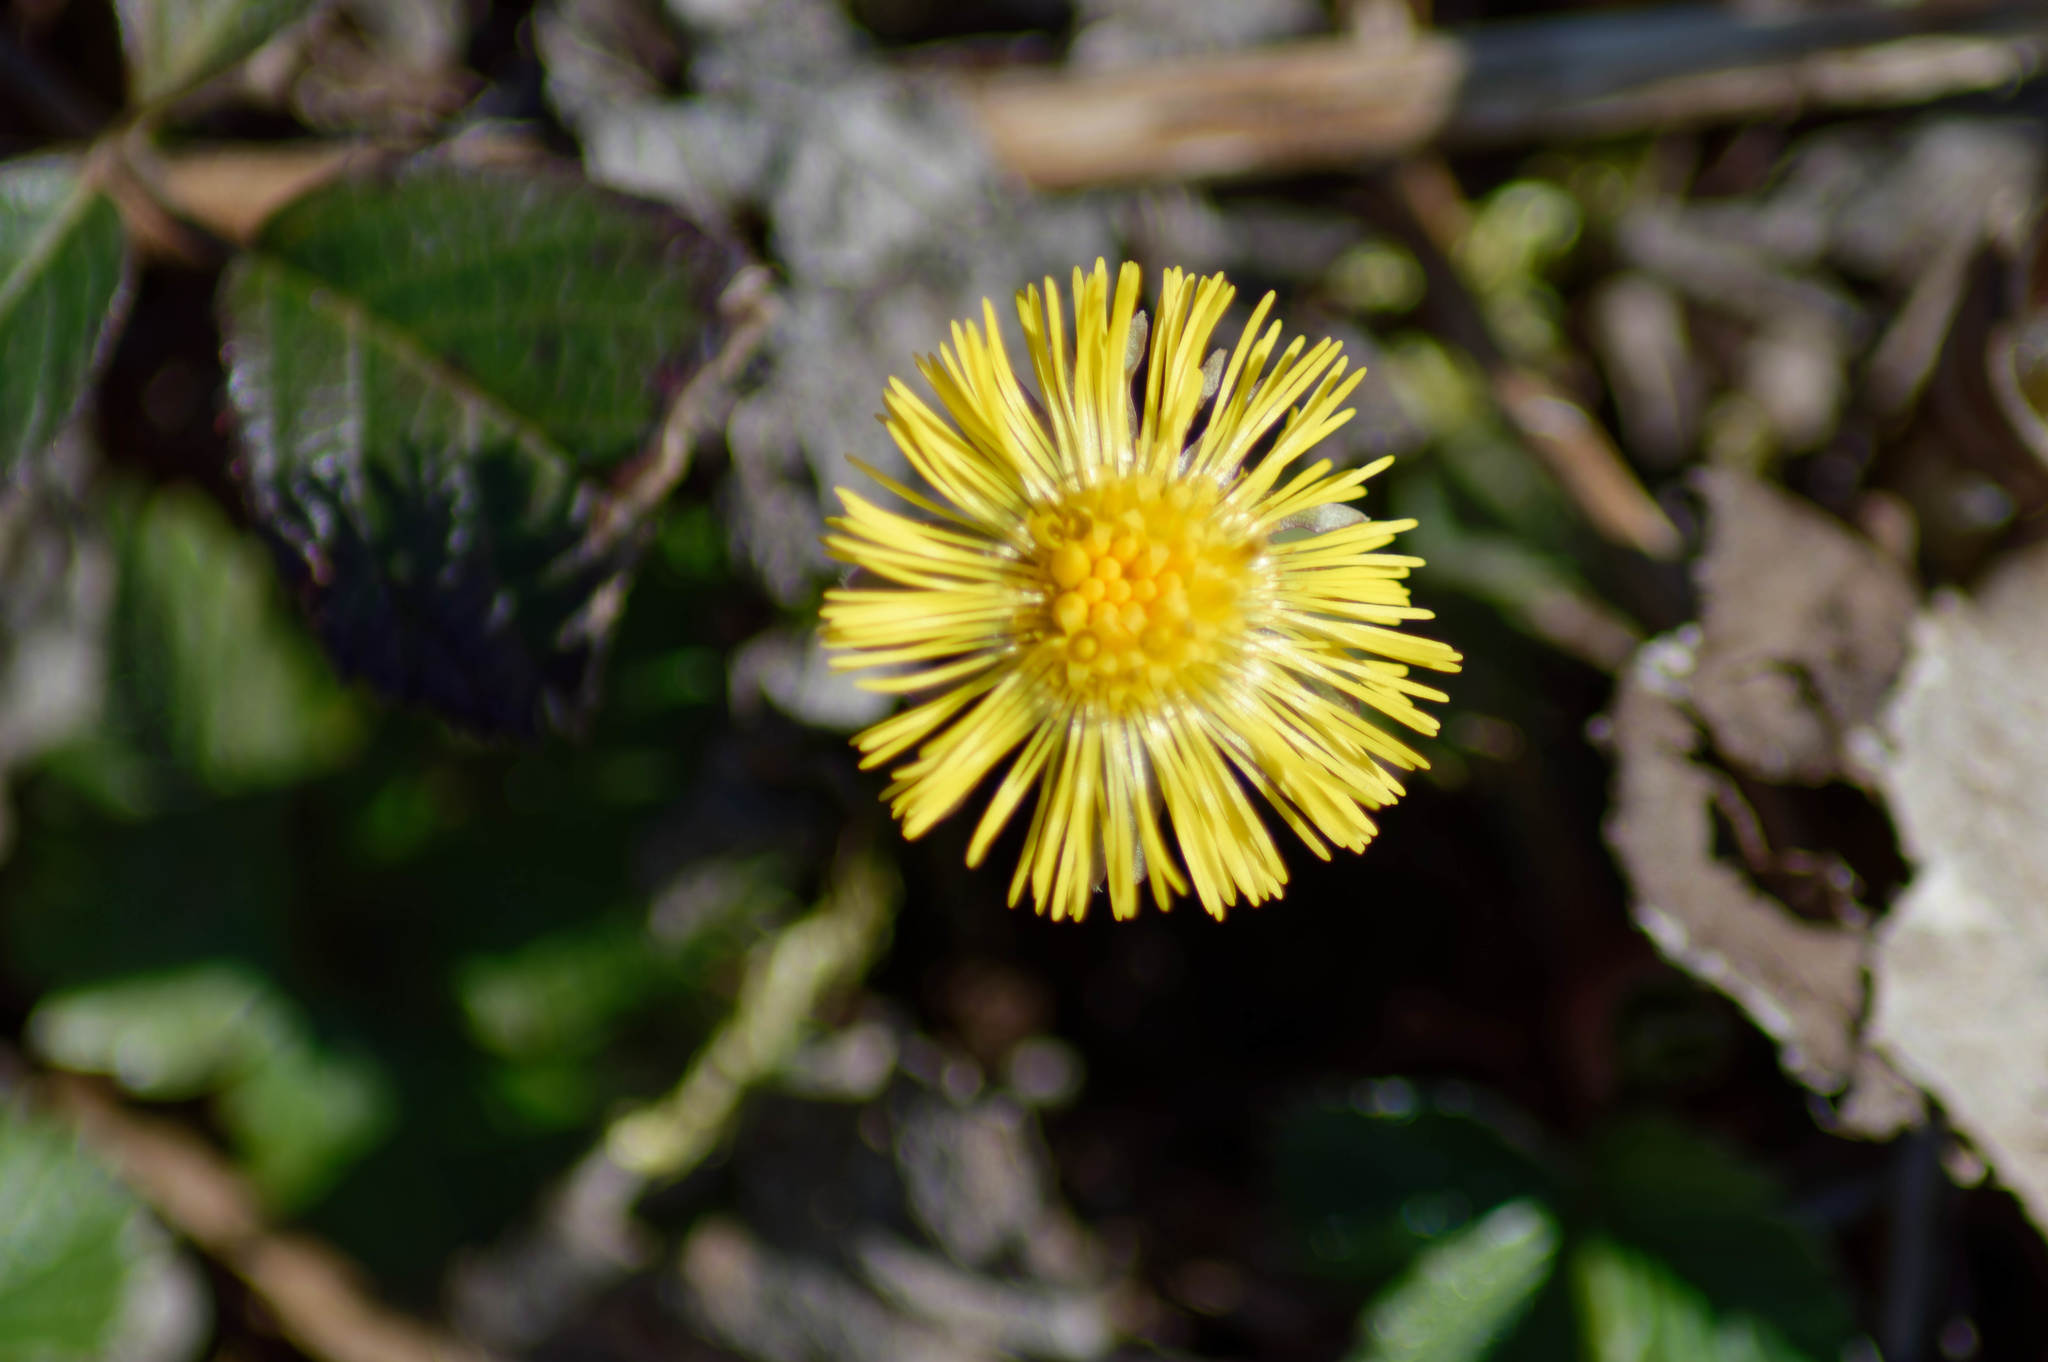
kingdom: Plantae
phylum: Tracheophyta
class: Magnoliopsida
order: Asterales
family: Asteraceae
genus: Tussilago
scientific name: Tussilago farfara
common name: Coltsfoot
